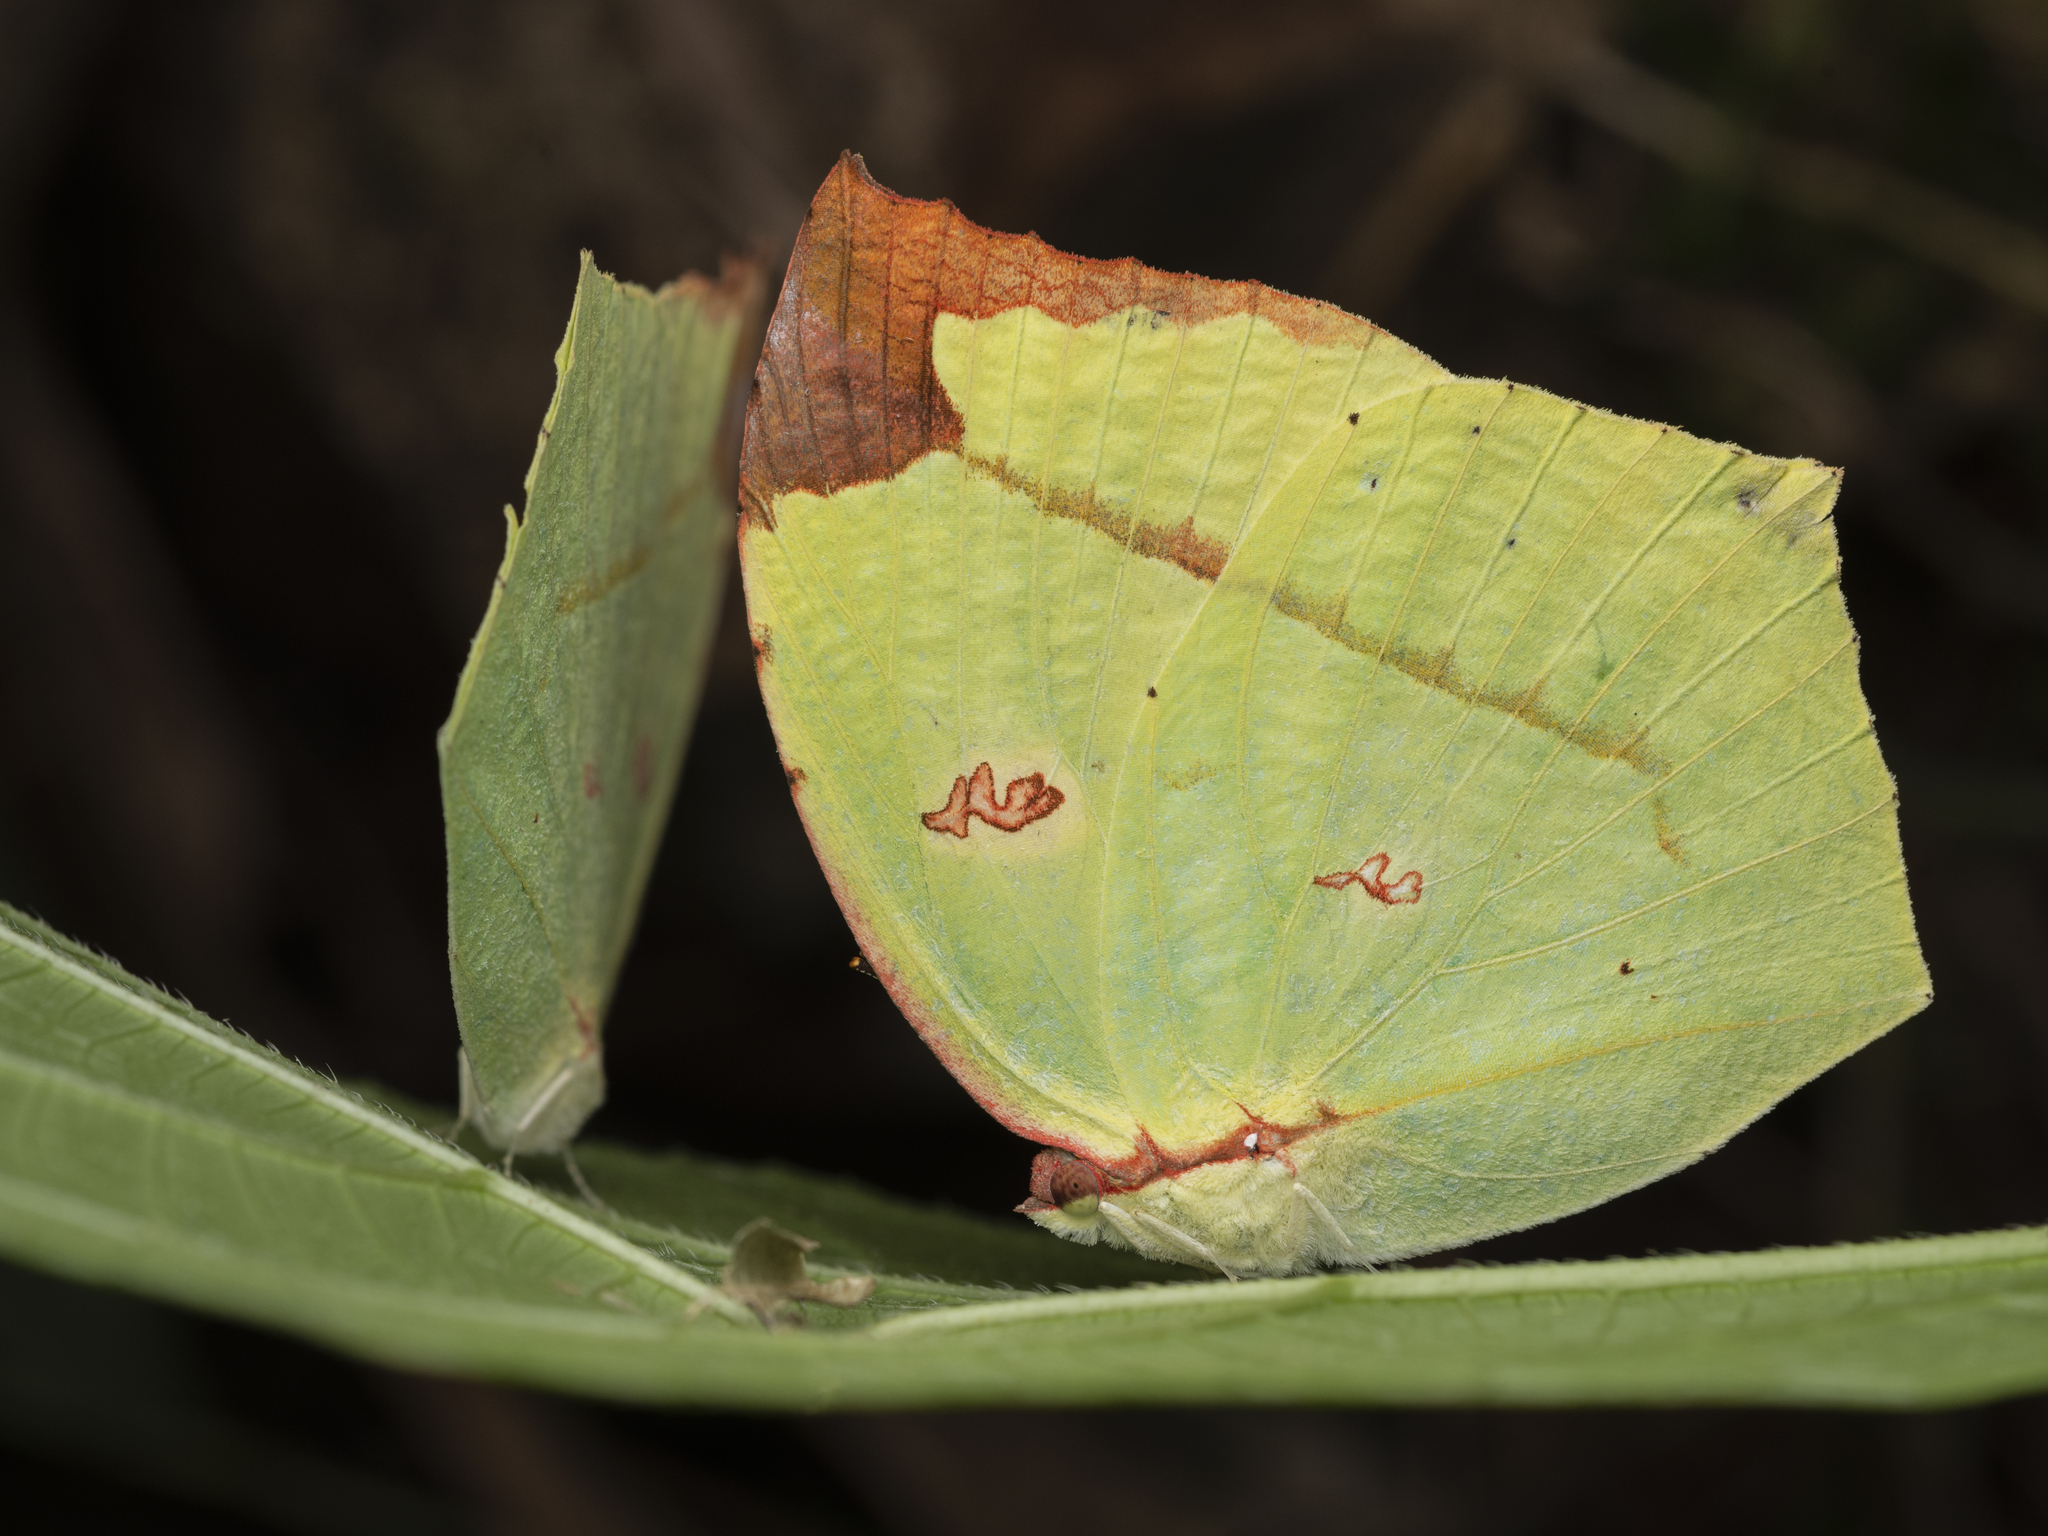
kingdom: Animalia
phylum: Arthropoda
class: Insecta
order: Lepidoptera
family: Pieridae
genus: Dercas
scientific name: Dercas verhuelli
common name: Tailed sulphur
